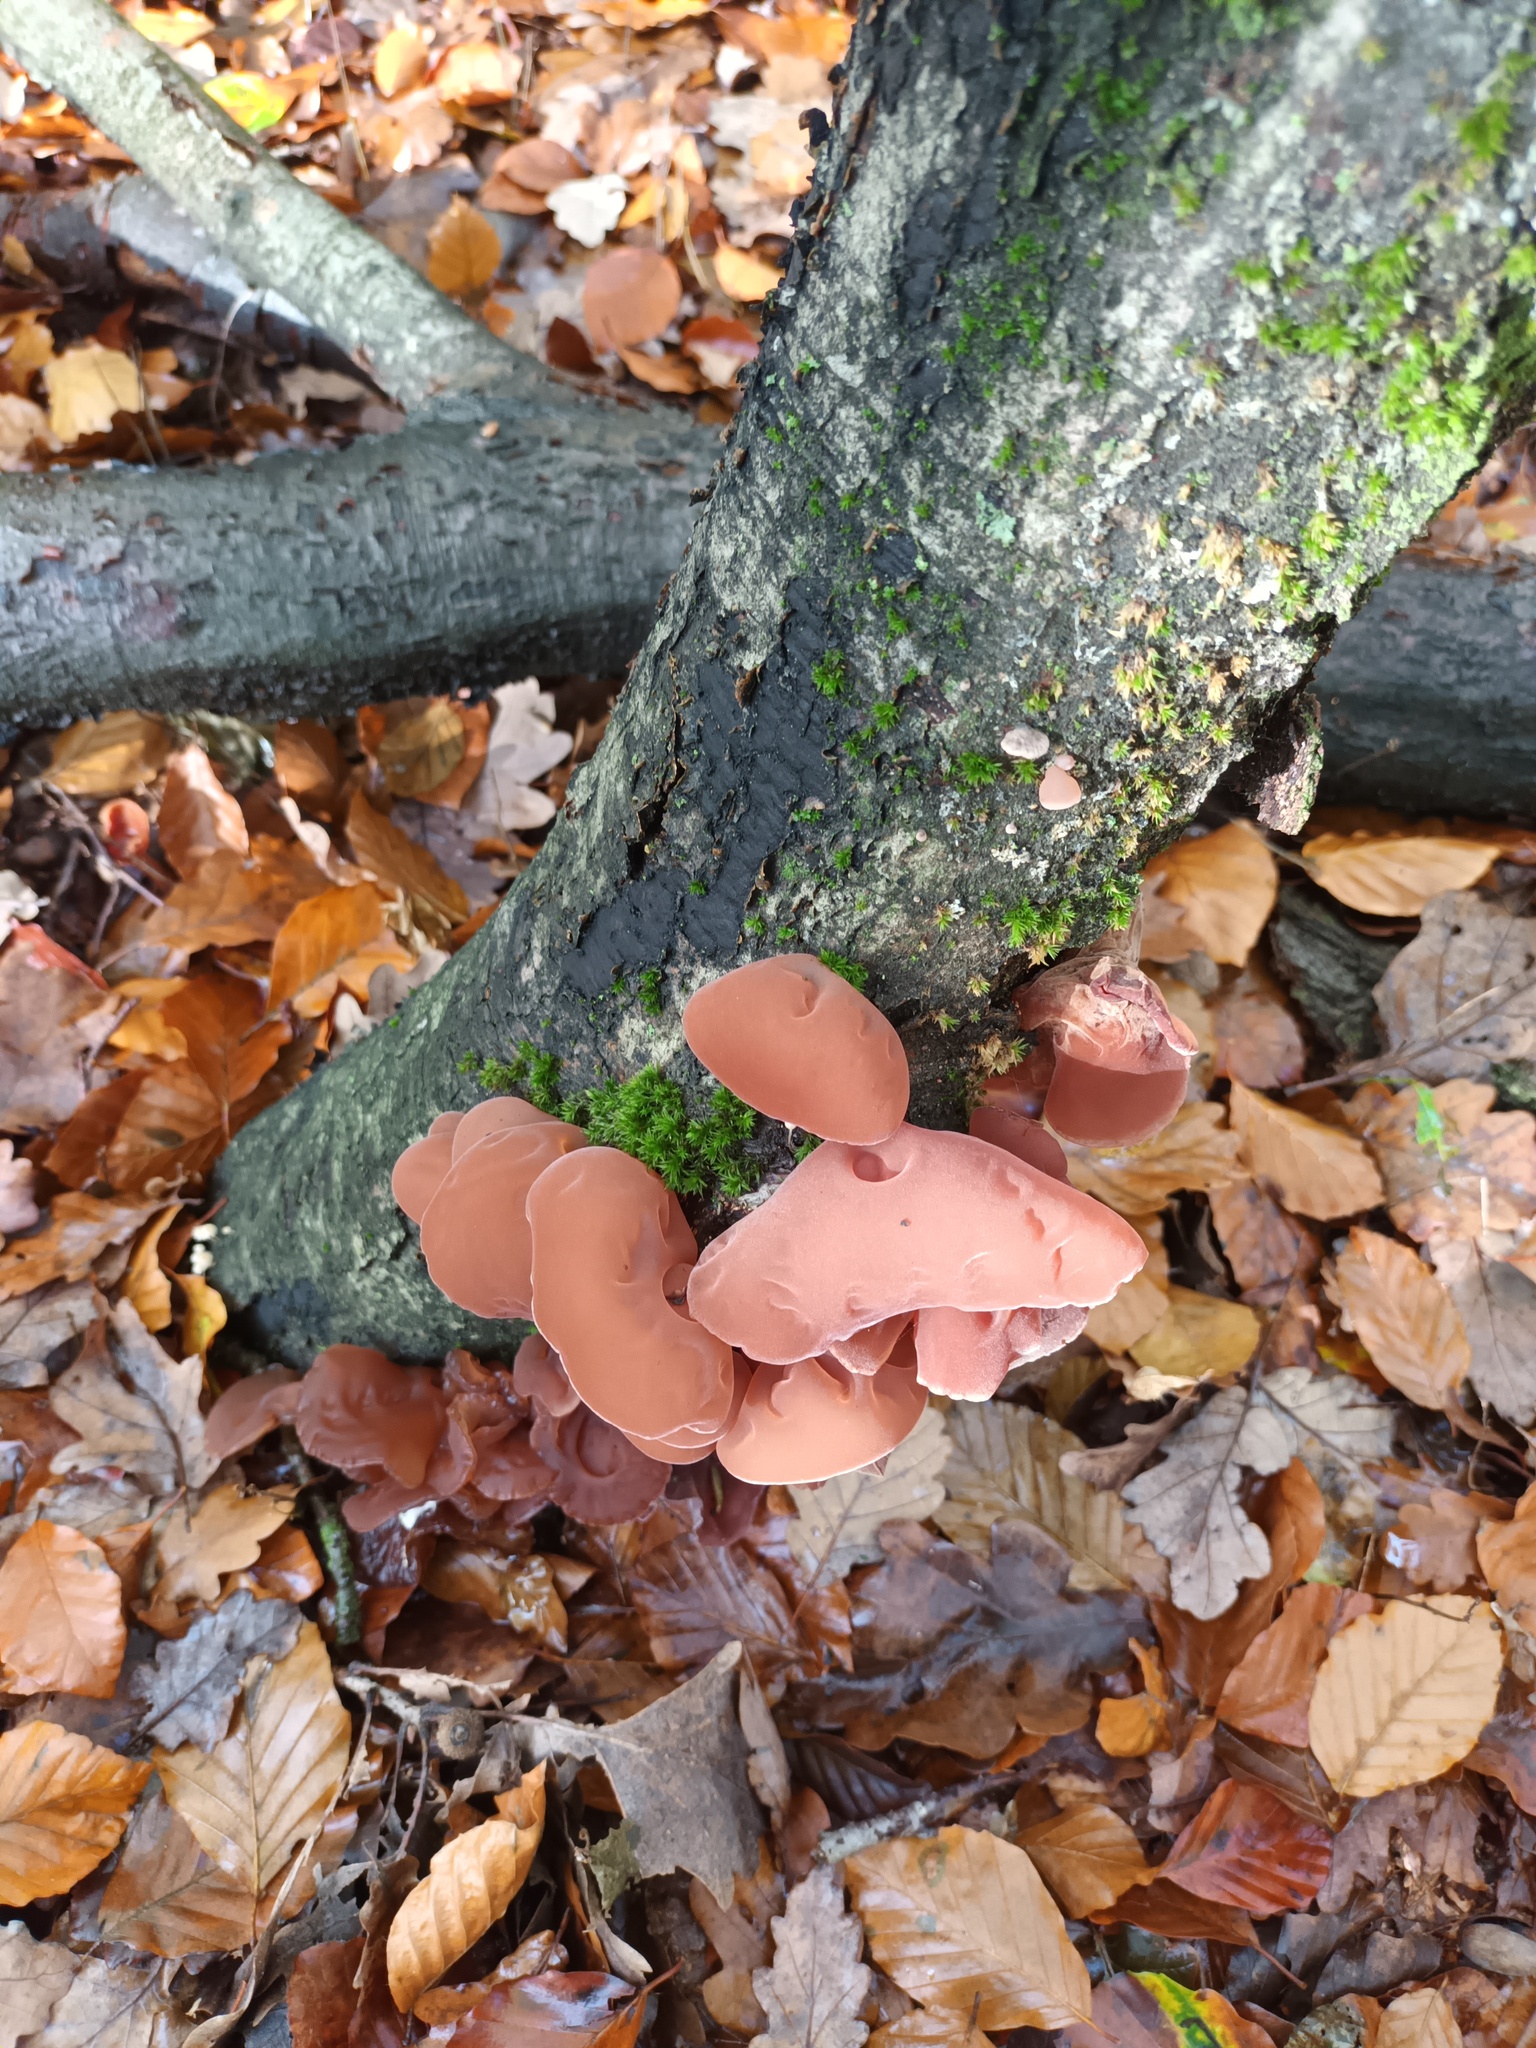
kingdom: Fungi
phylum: Basidiomycota
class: Agaricomycetes
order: Auriculariales
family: Auriculariaceae
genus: Auricularia
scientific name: Auricularia auricula-judae
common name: Jelly ear
